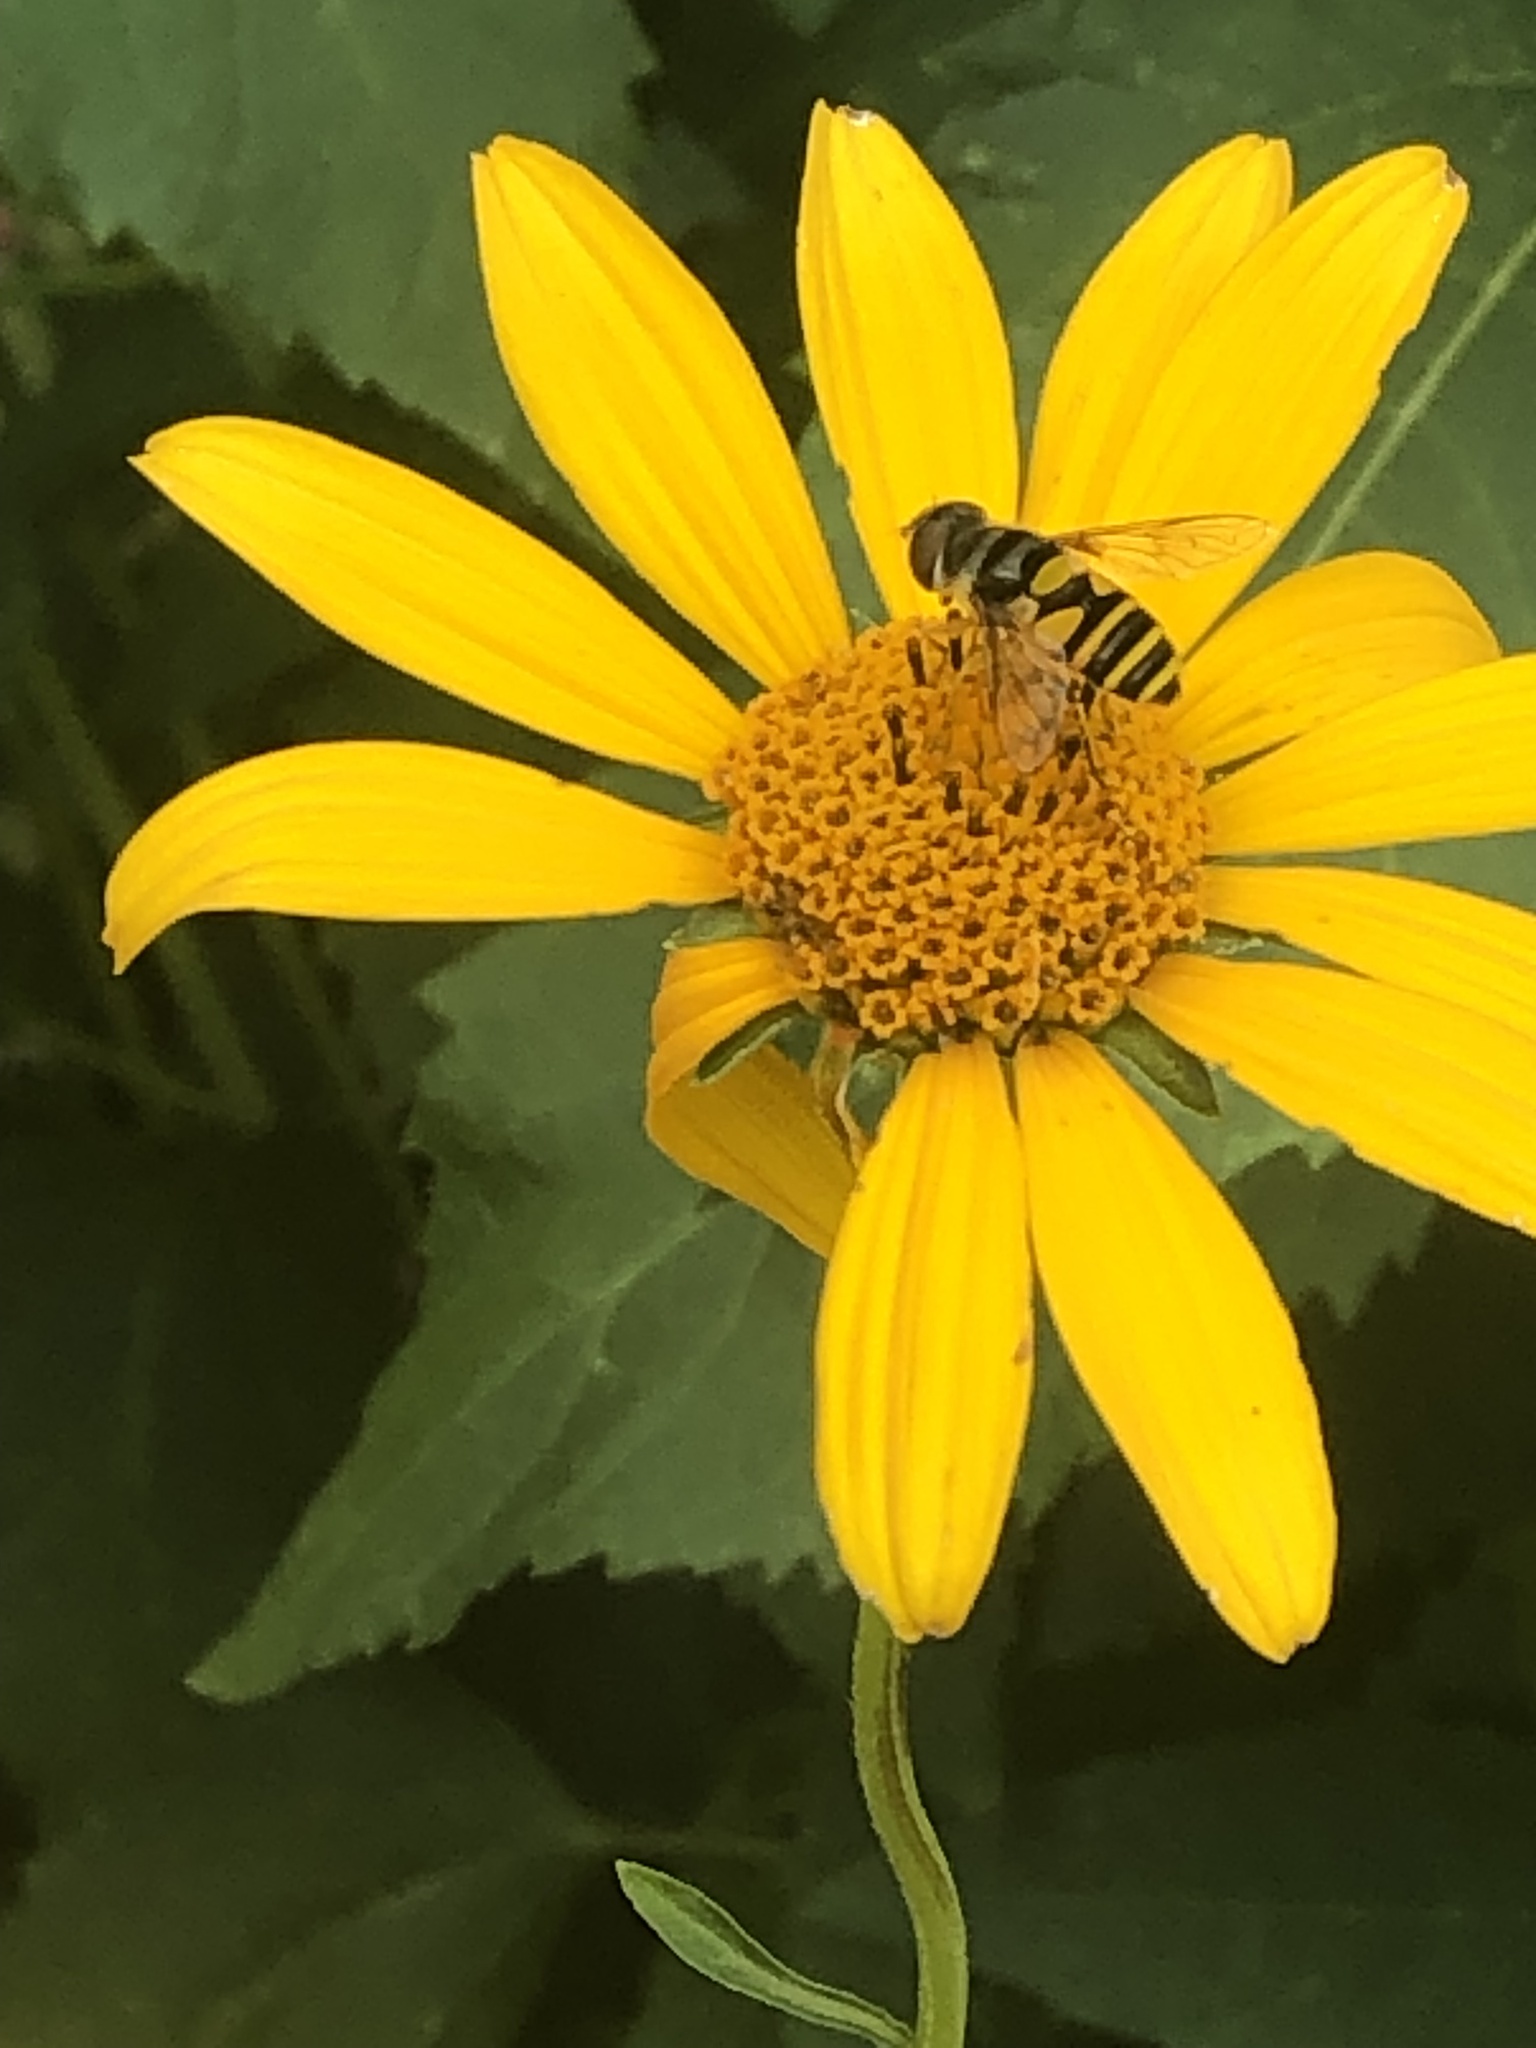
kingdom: Animalia
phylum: Arthropoda
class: Insecta
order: Diptera
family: Syrphidae
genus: Eristalis
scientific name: Eristalis transversa
